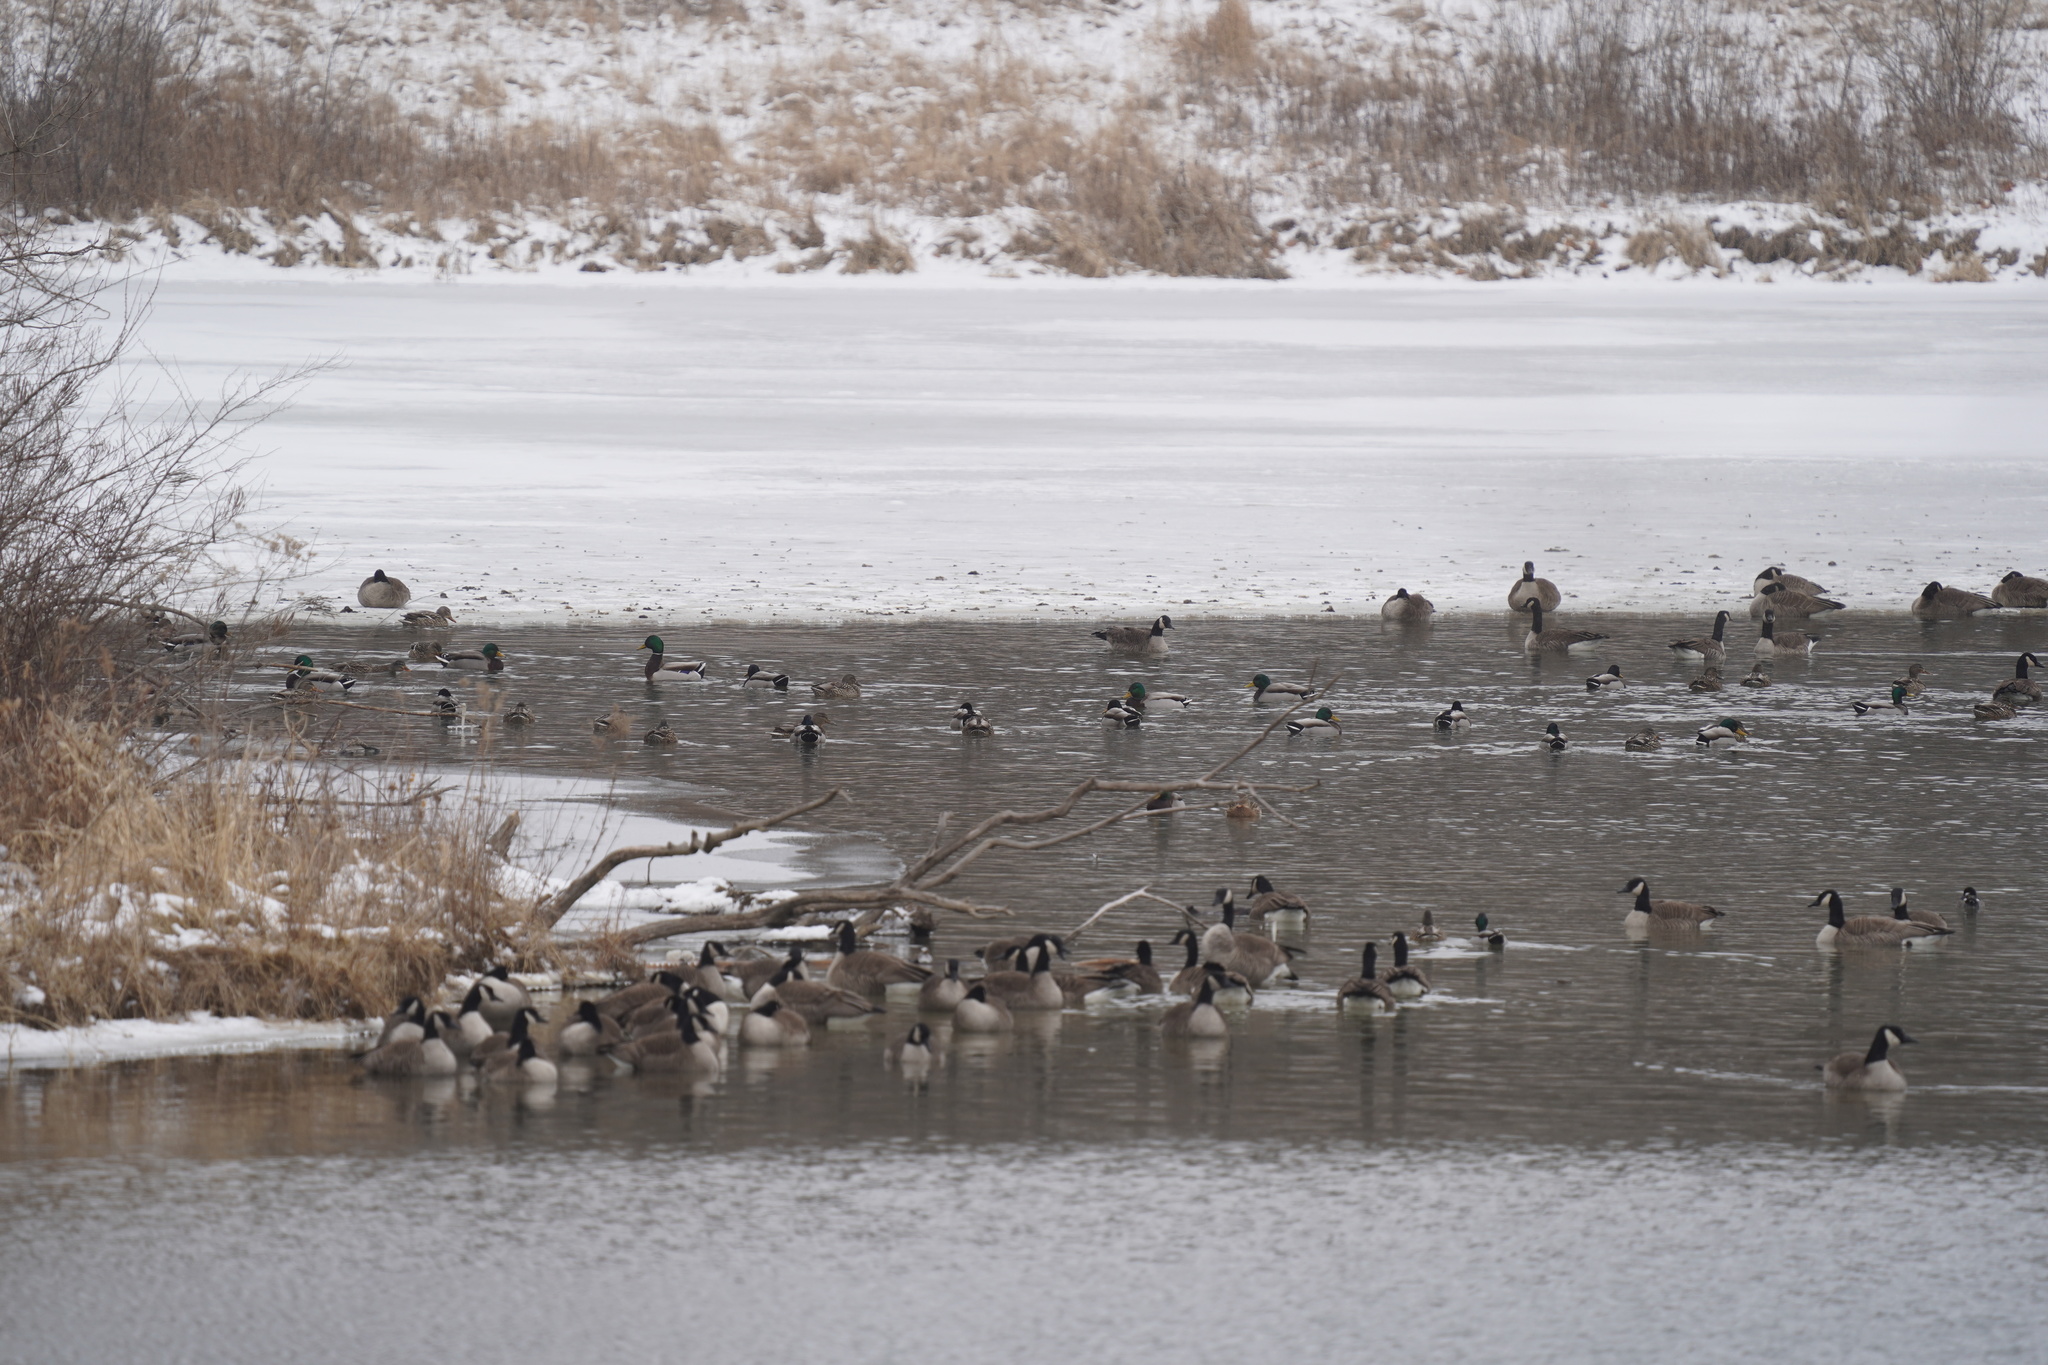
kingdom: Animalia
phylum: Chordata
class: Aves
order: Anseriformes
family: Anatidae
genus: Anas
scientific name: Anas platyrhynchos
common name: Mallard
